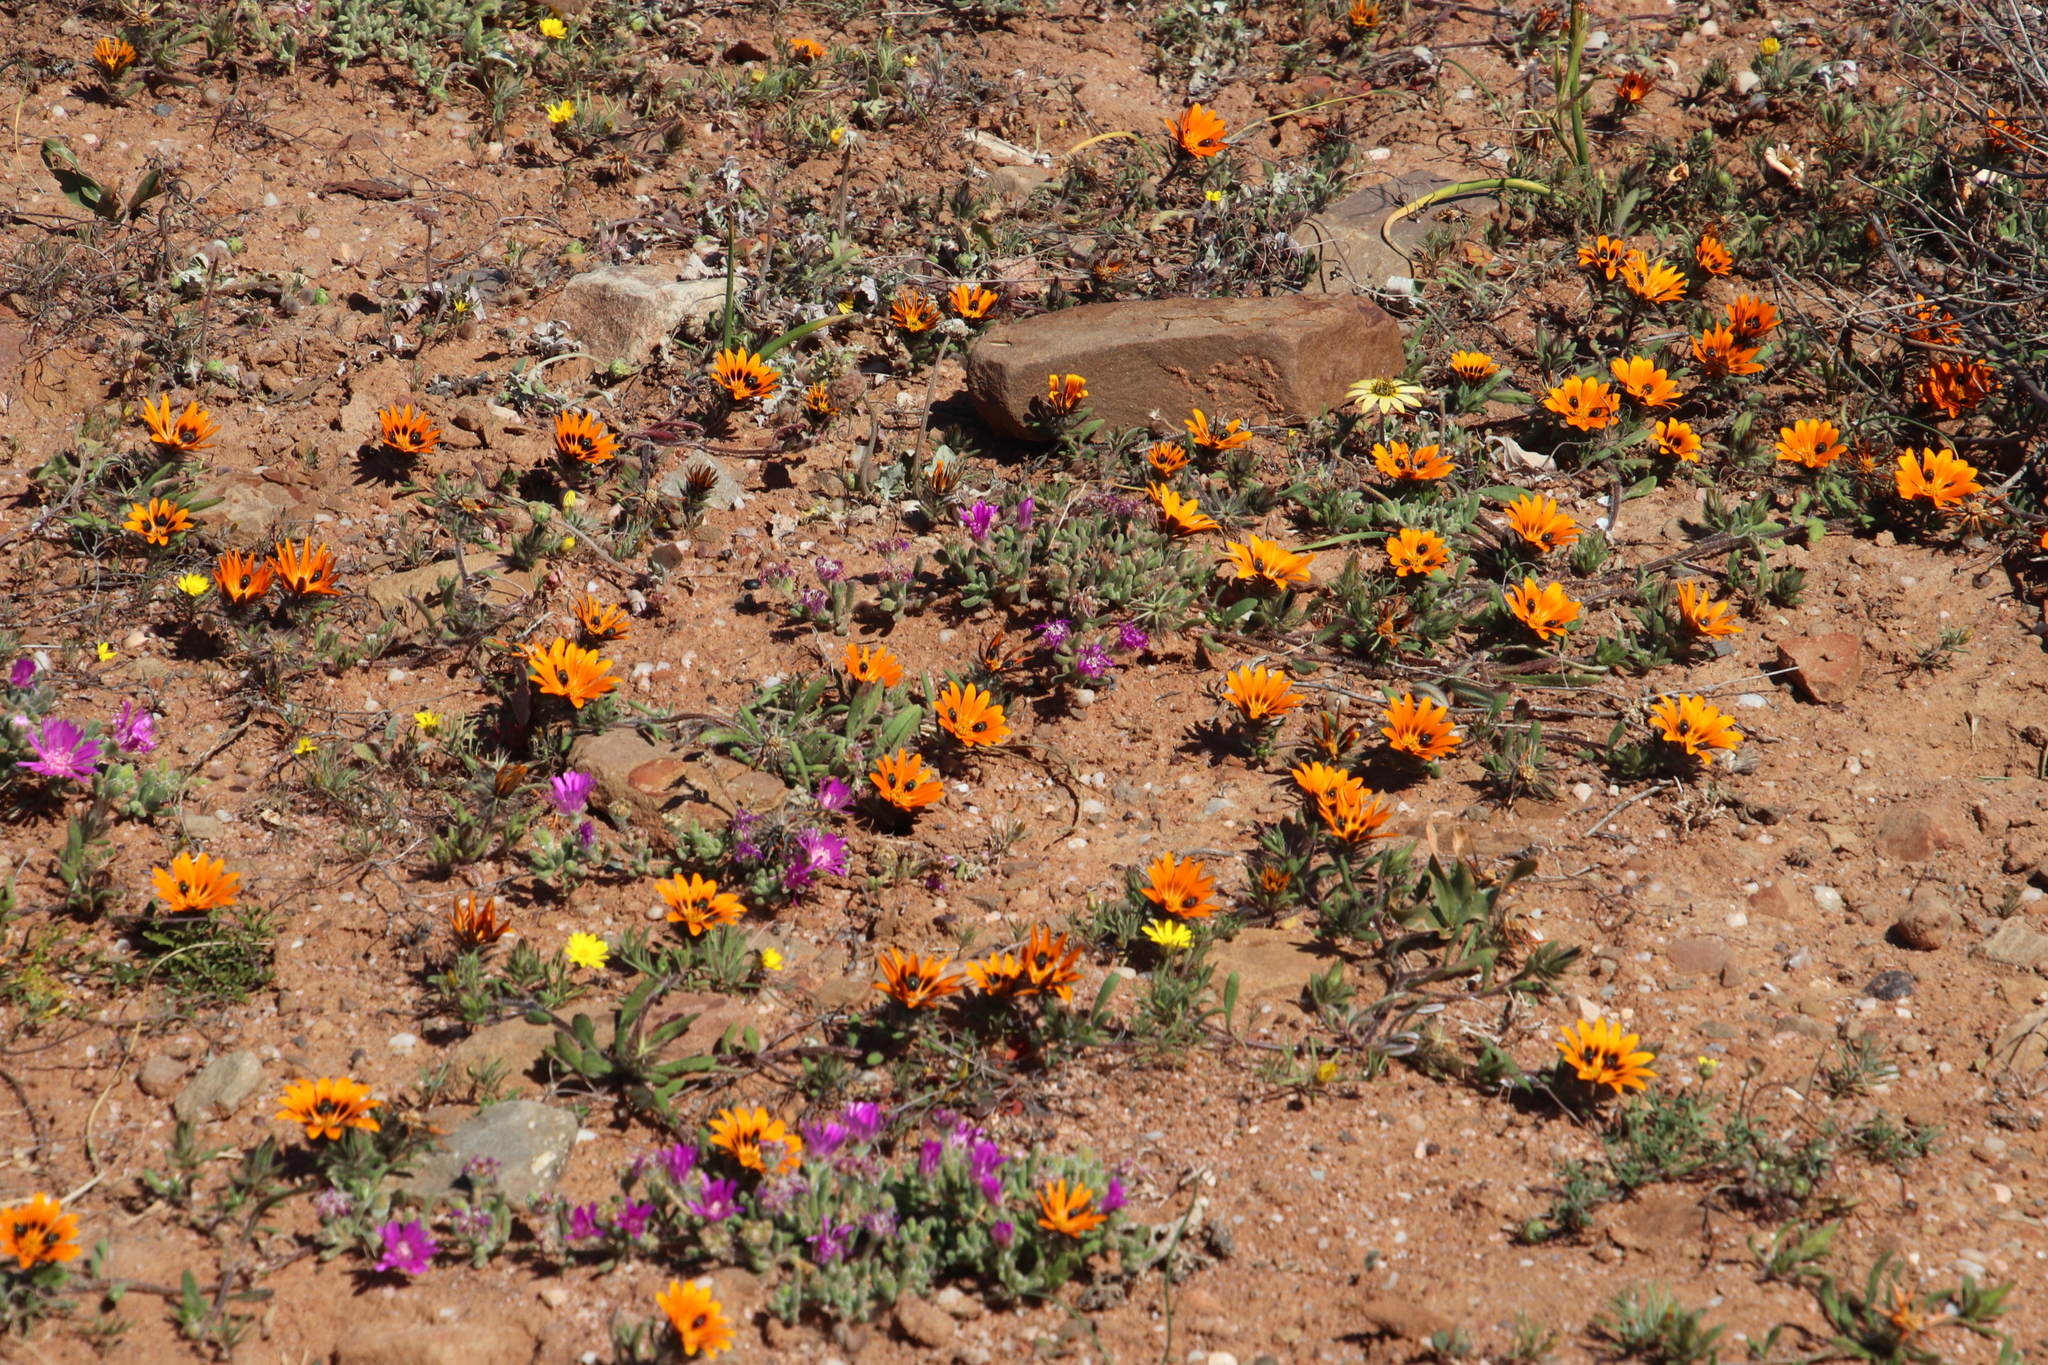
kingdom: Plantae
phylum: Tracheophyta
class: Magnoliopsida
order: Asterales
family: Asteraceae
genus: Gorteria
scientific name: Gorteria diffusa
